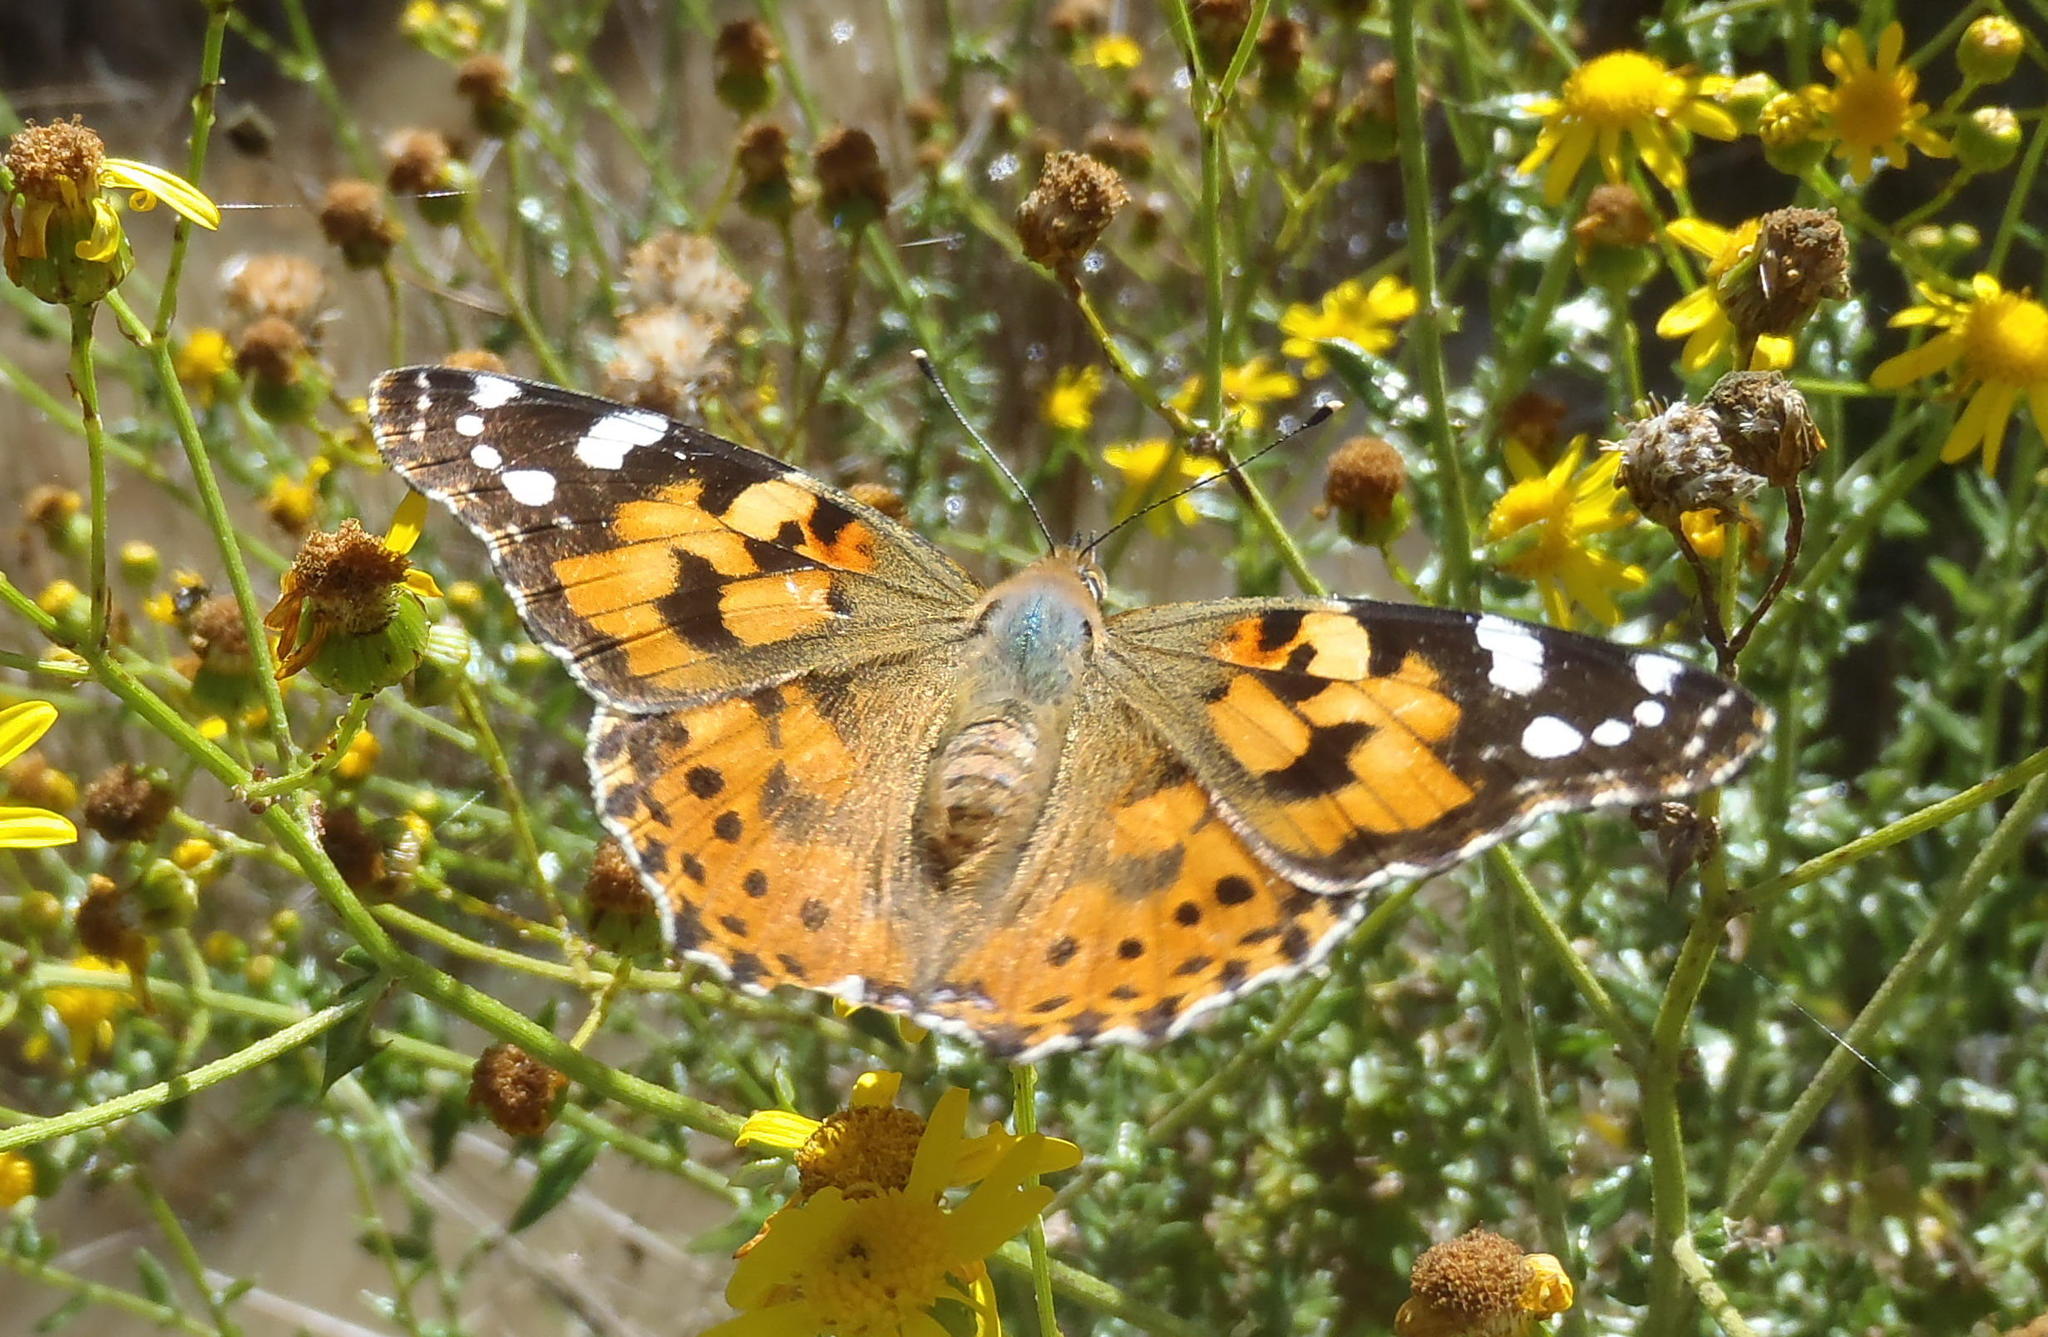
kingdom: Animalia
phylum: Arthropoda
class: Insecta
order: Lepidoptera
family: Nymphalidae
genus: Vanessa
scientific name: Vanessa cardui
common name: Painted lady
